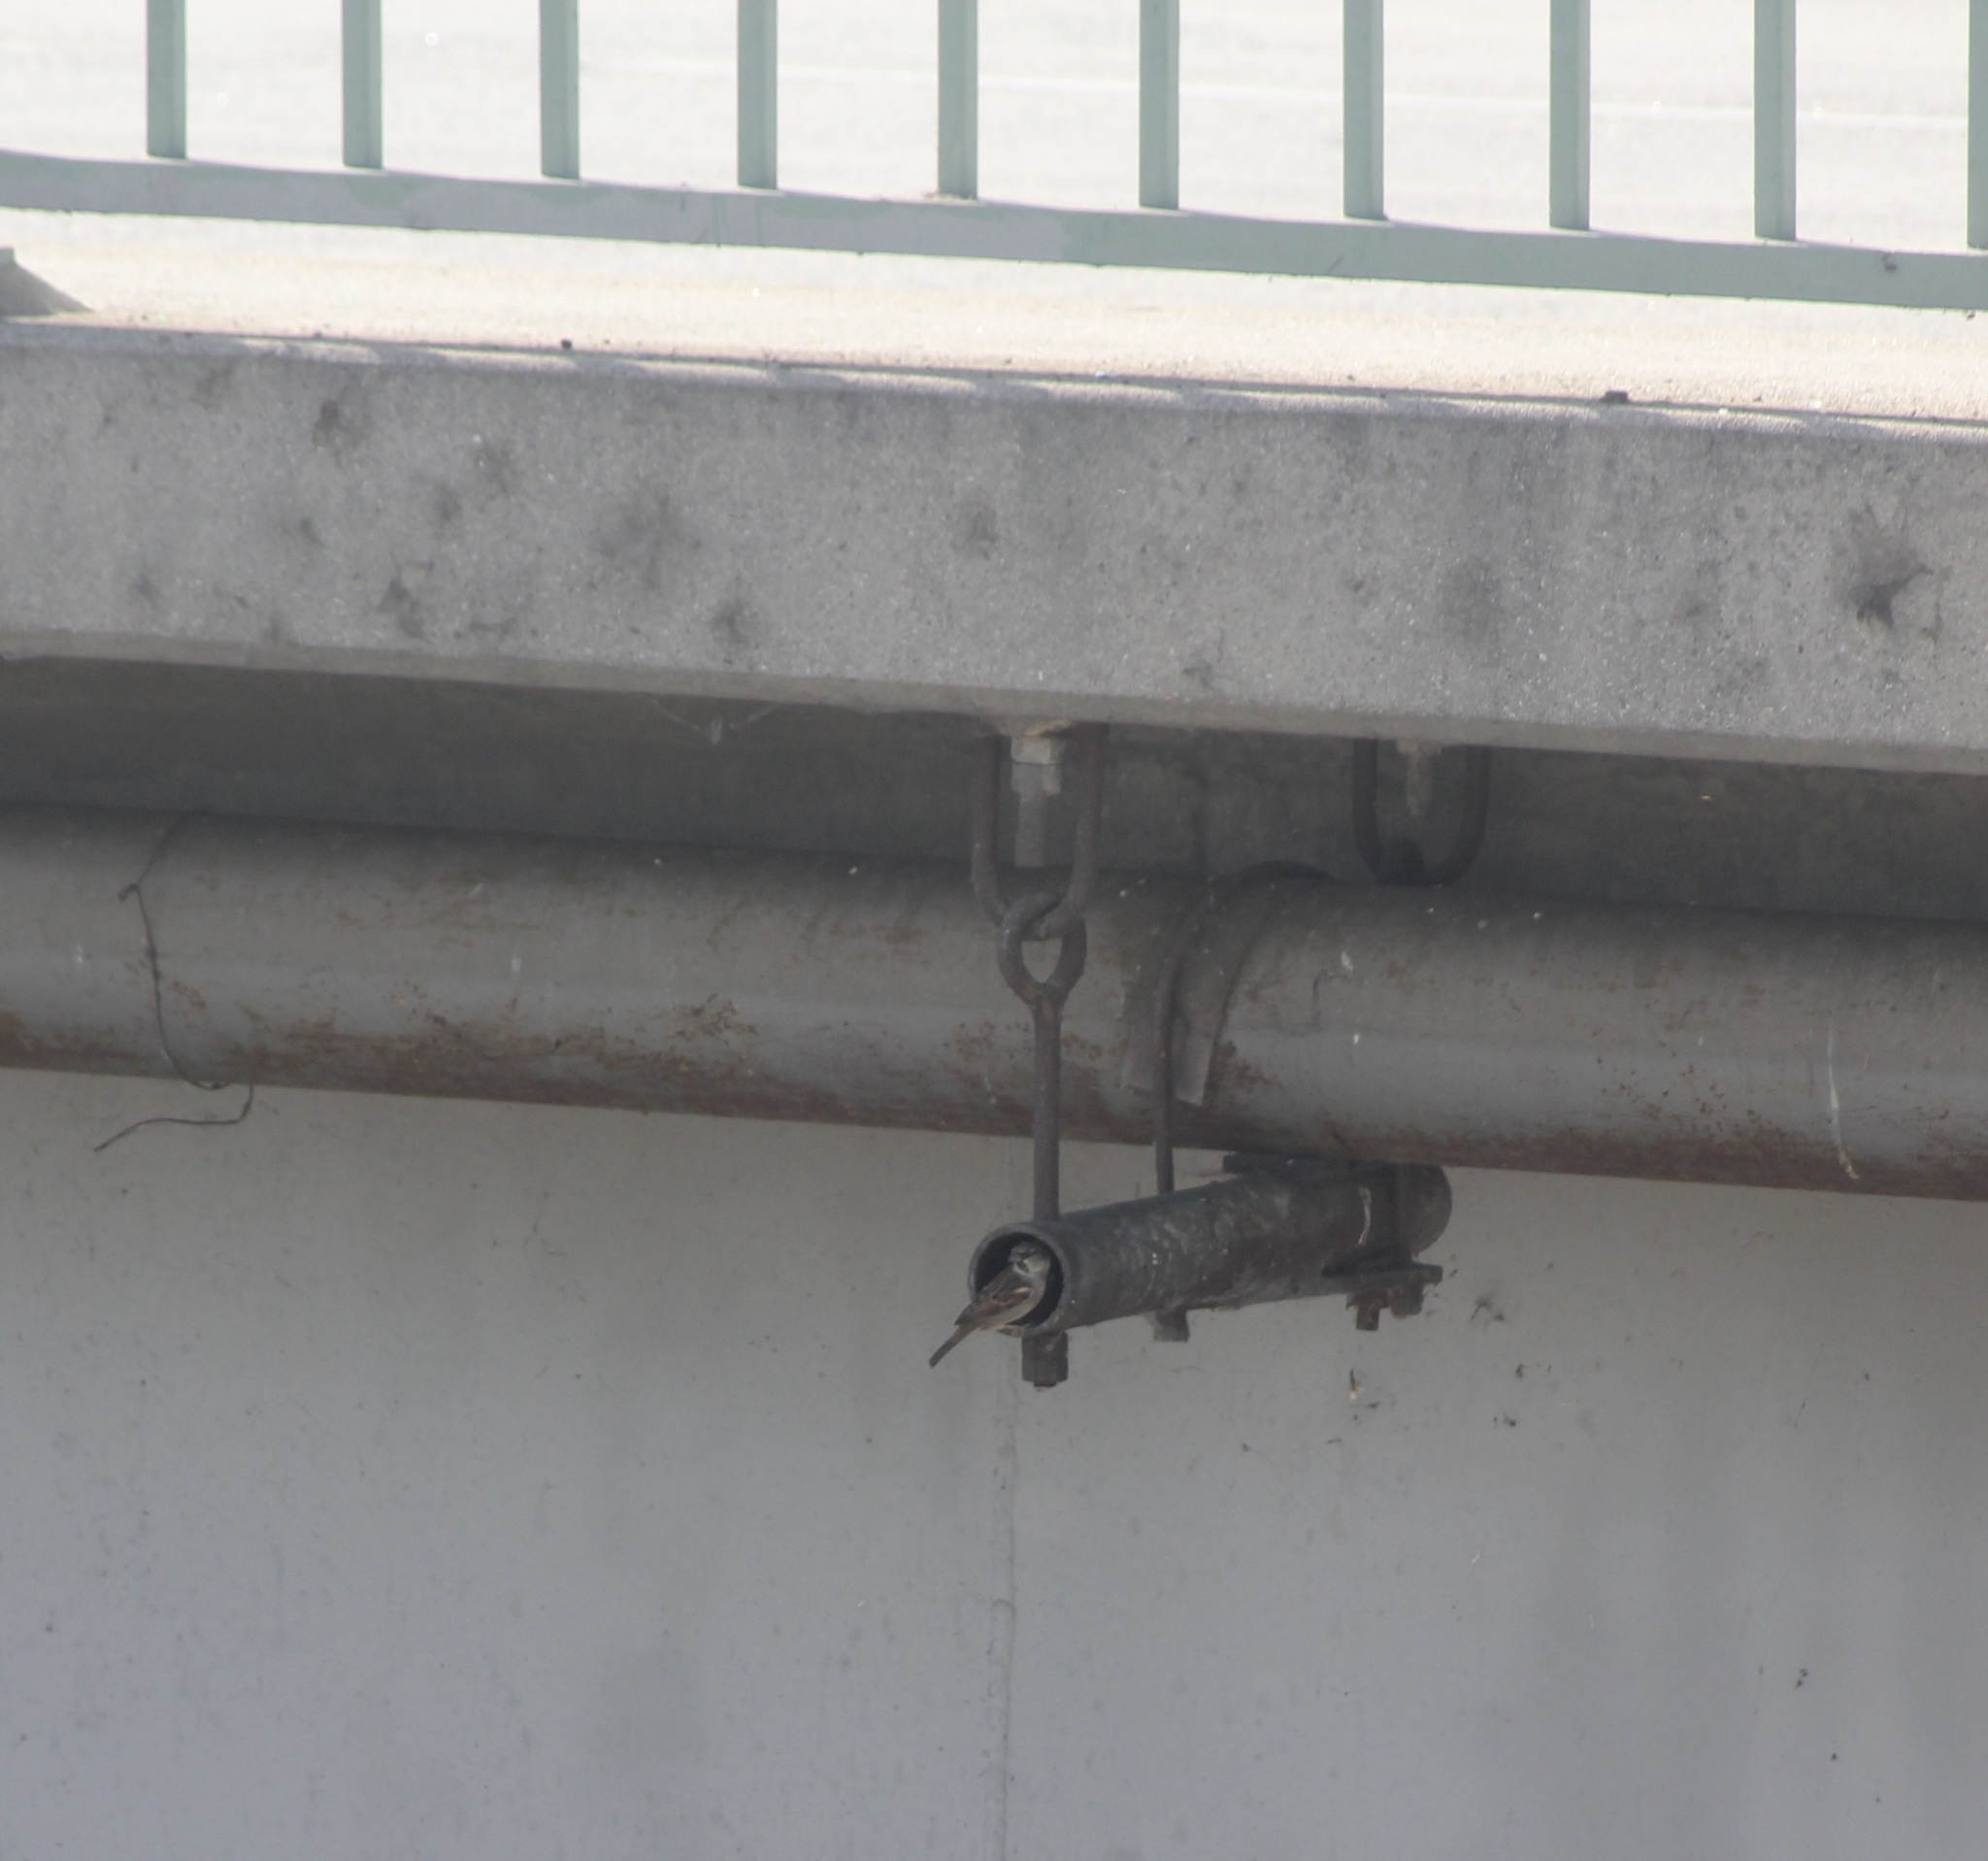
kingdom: Animalia
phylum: Chordata
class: Aves
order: Passeriformes
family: Passeridae
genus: Passer
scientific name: Passer domesticus
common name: House sparrow
